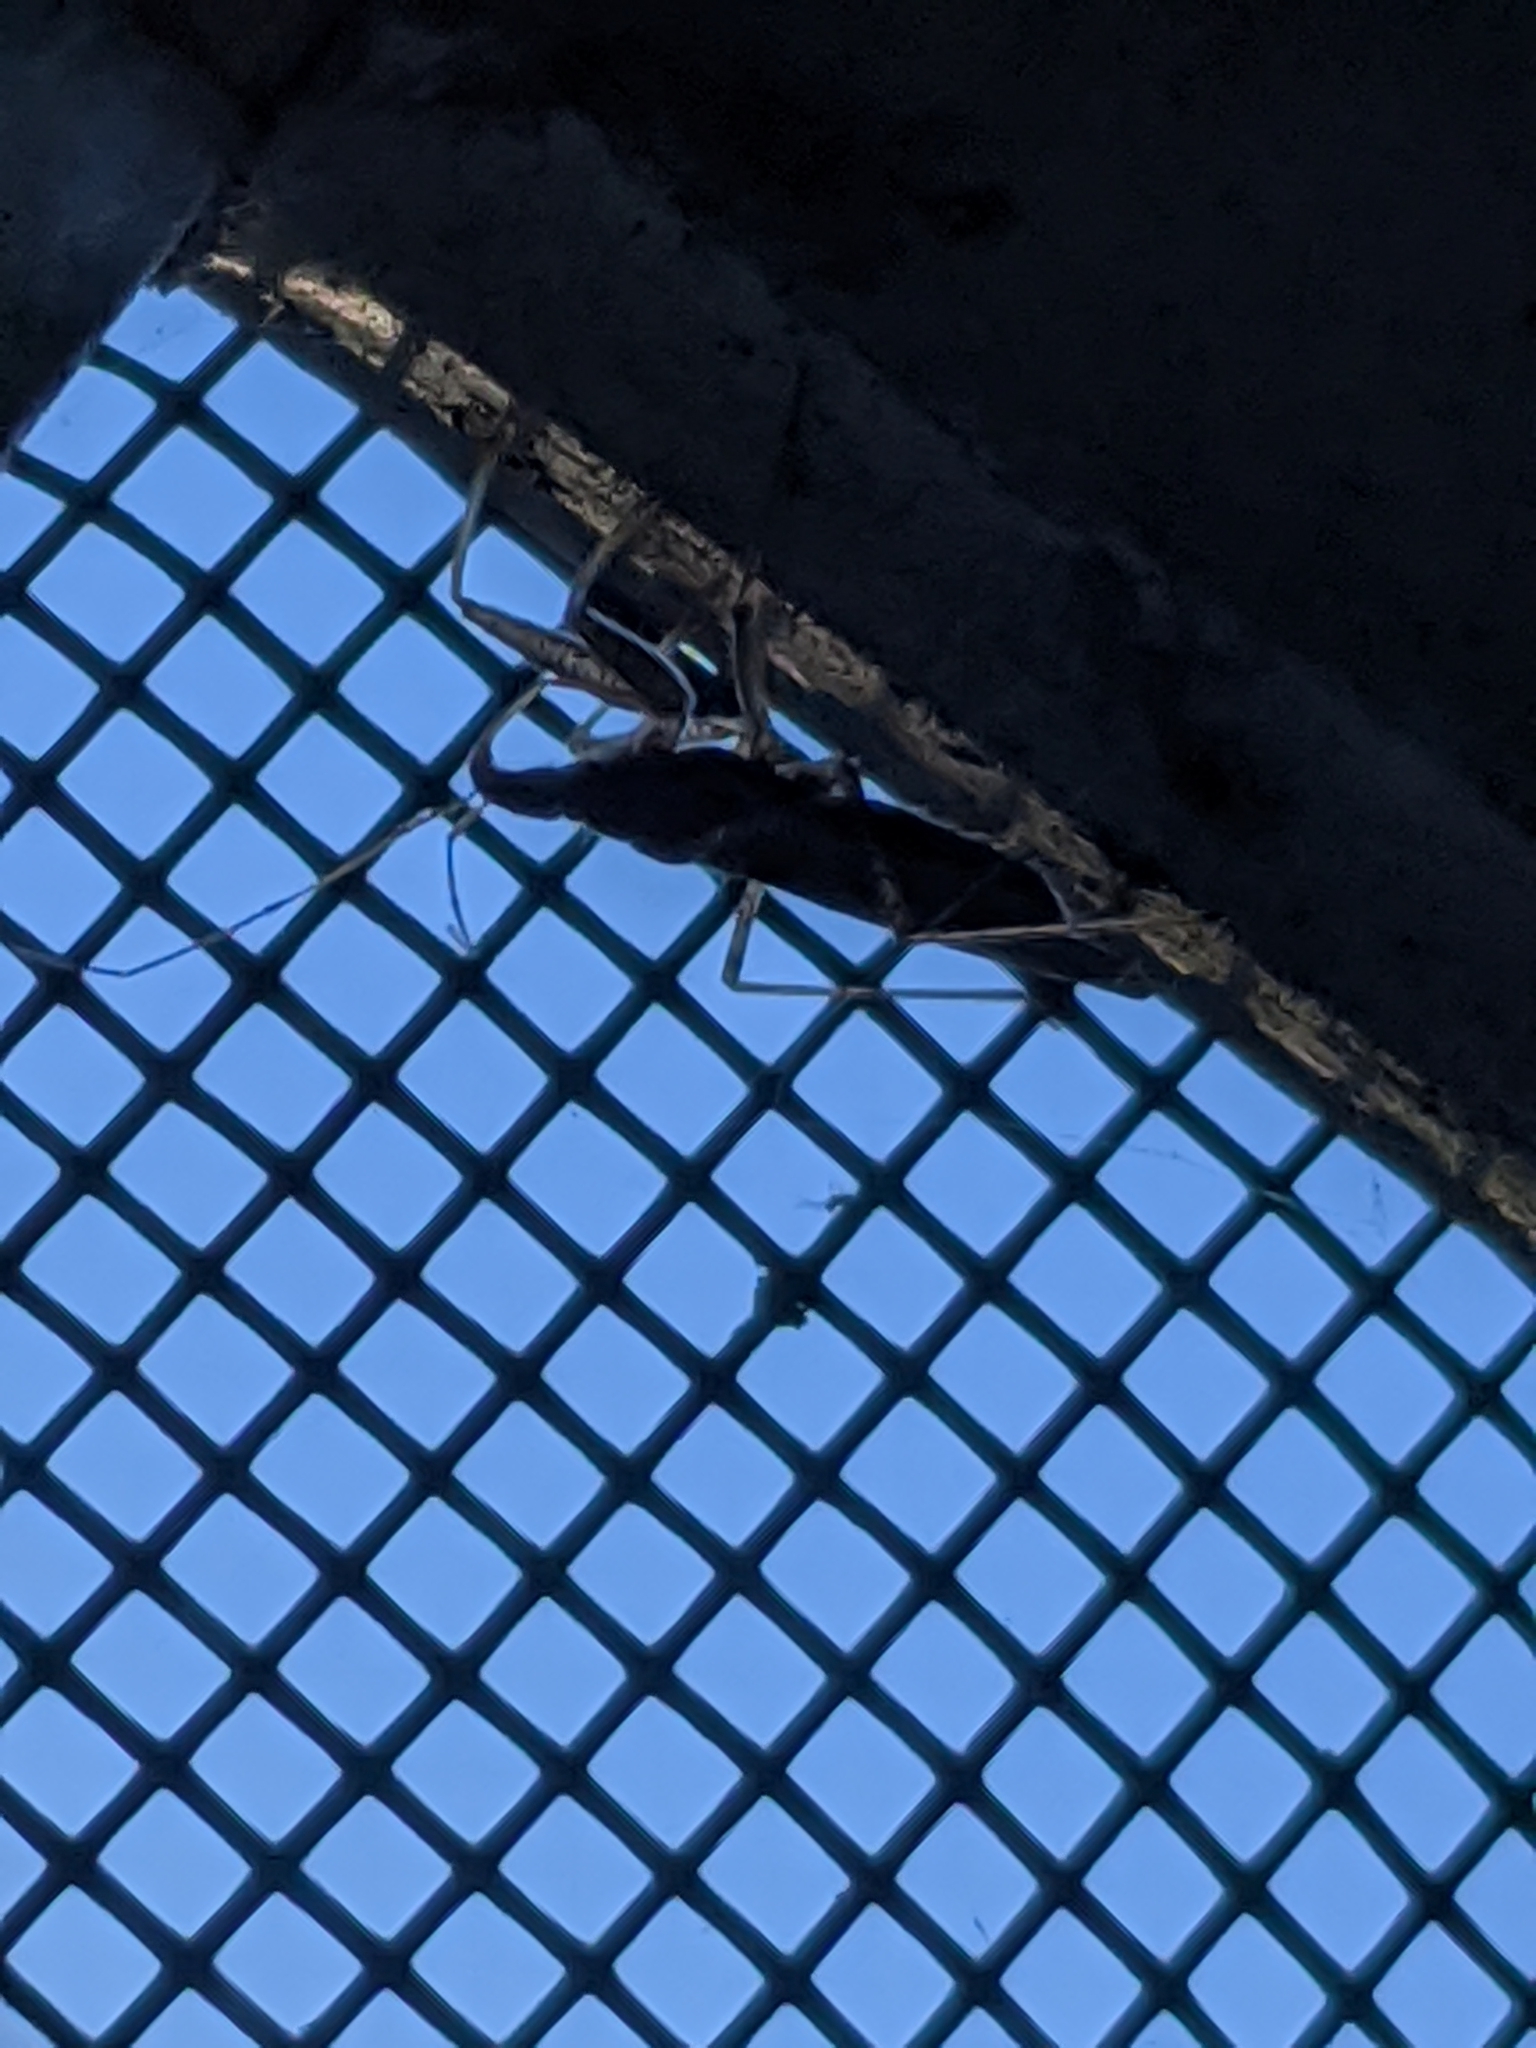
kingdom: Animalia
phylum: Arthropoda
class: Insecta
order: Hemiptera
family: Nabidae
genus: Nabis
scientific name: Nabis
